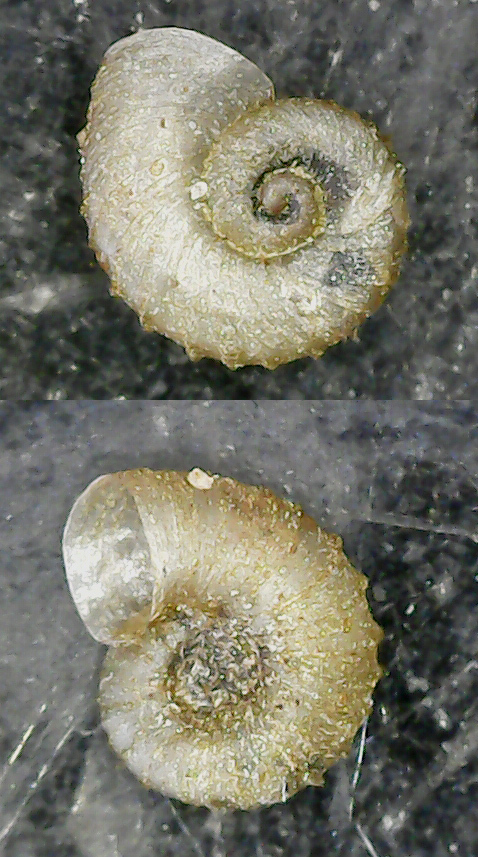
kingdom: Animalia
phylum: Mollusca
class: Gastropoda
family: Planorbidae
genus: Armiger
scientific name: Armiger crista
